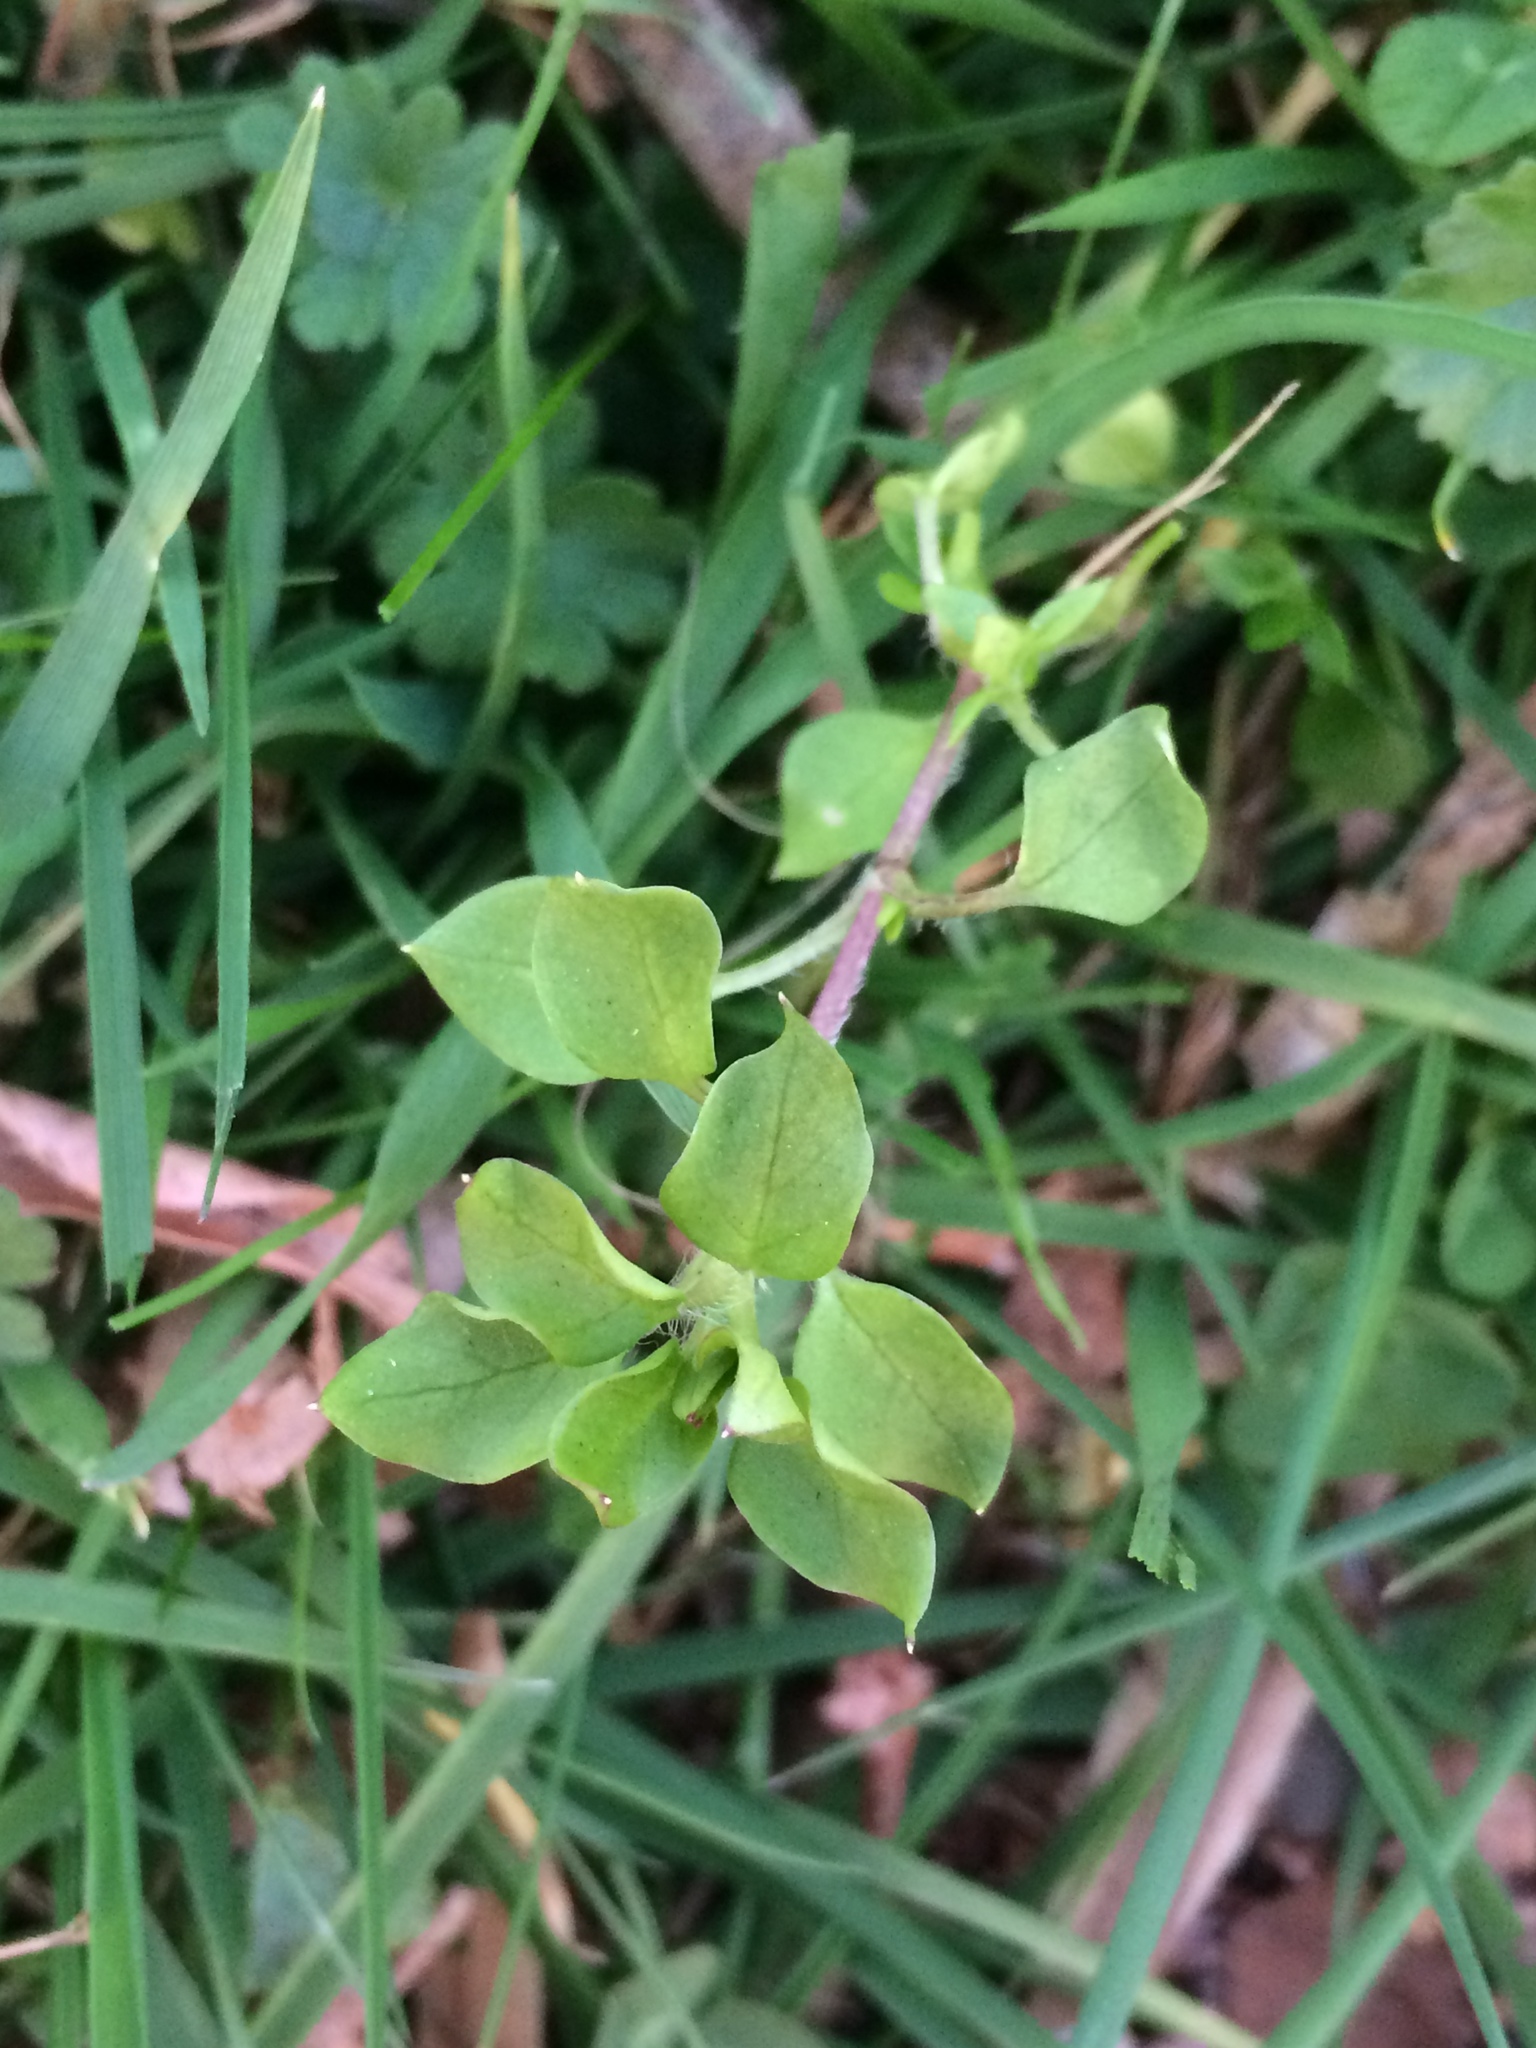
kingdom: Plantae
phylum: Tracheophyta
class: Magnoliopsida
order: Caryophyllales
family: Caryophyllaceae
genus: Stellaria
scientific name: Stellaria media
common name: Common chickweed
